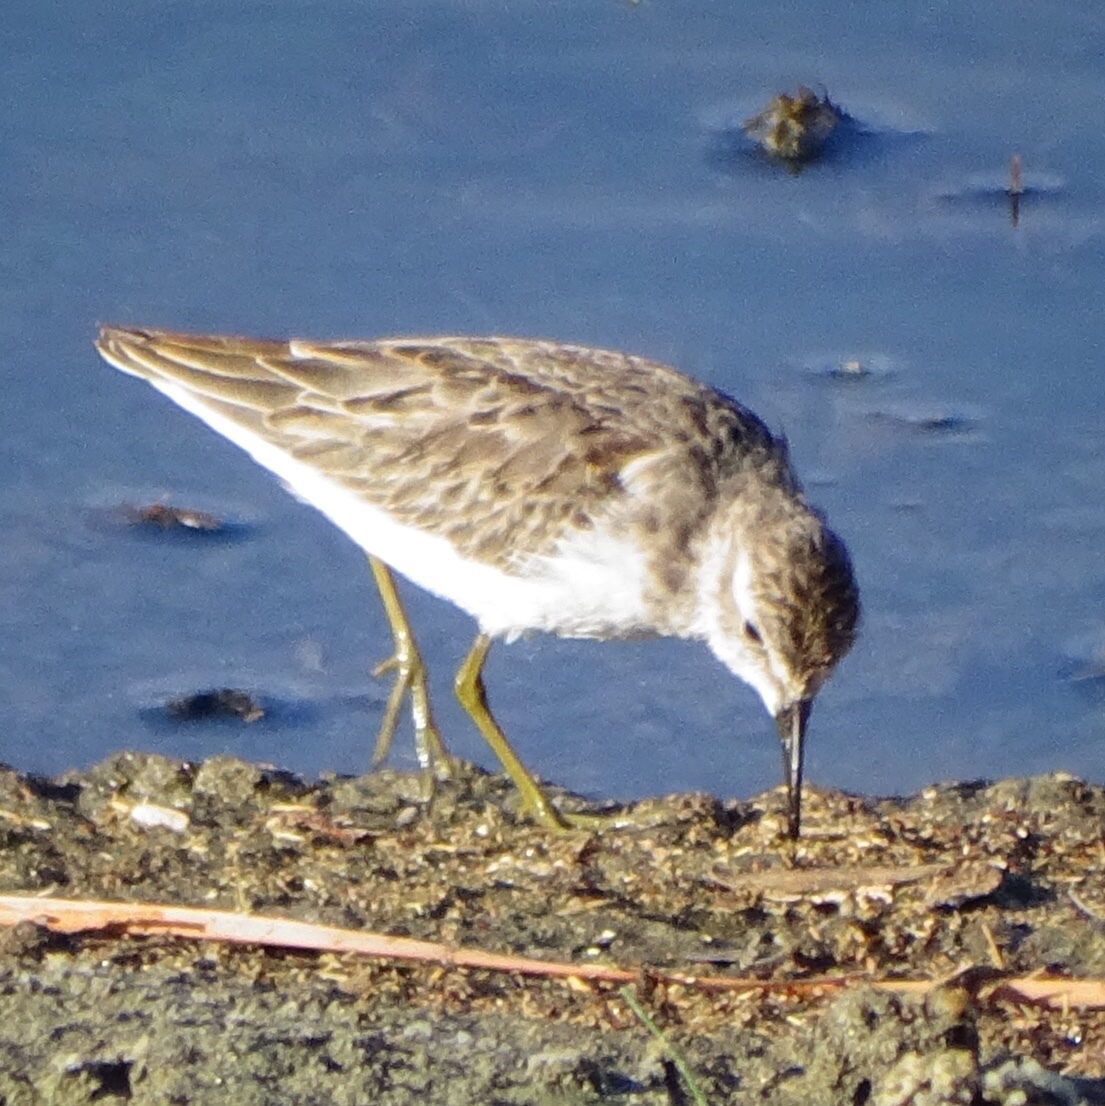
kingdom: Animalia
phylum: Chordata
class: Aves
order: Charadriiformes
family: Scolopacidae
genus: Calidris
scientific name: Calidris minutilla
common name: Least sandpiper
